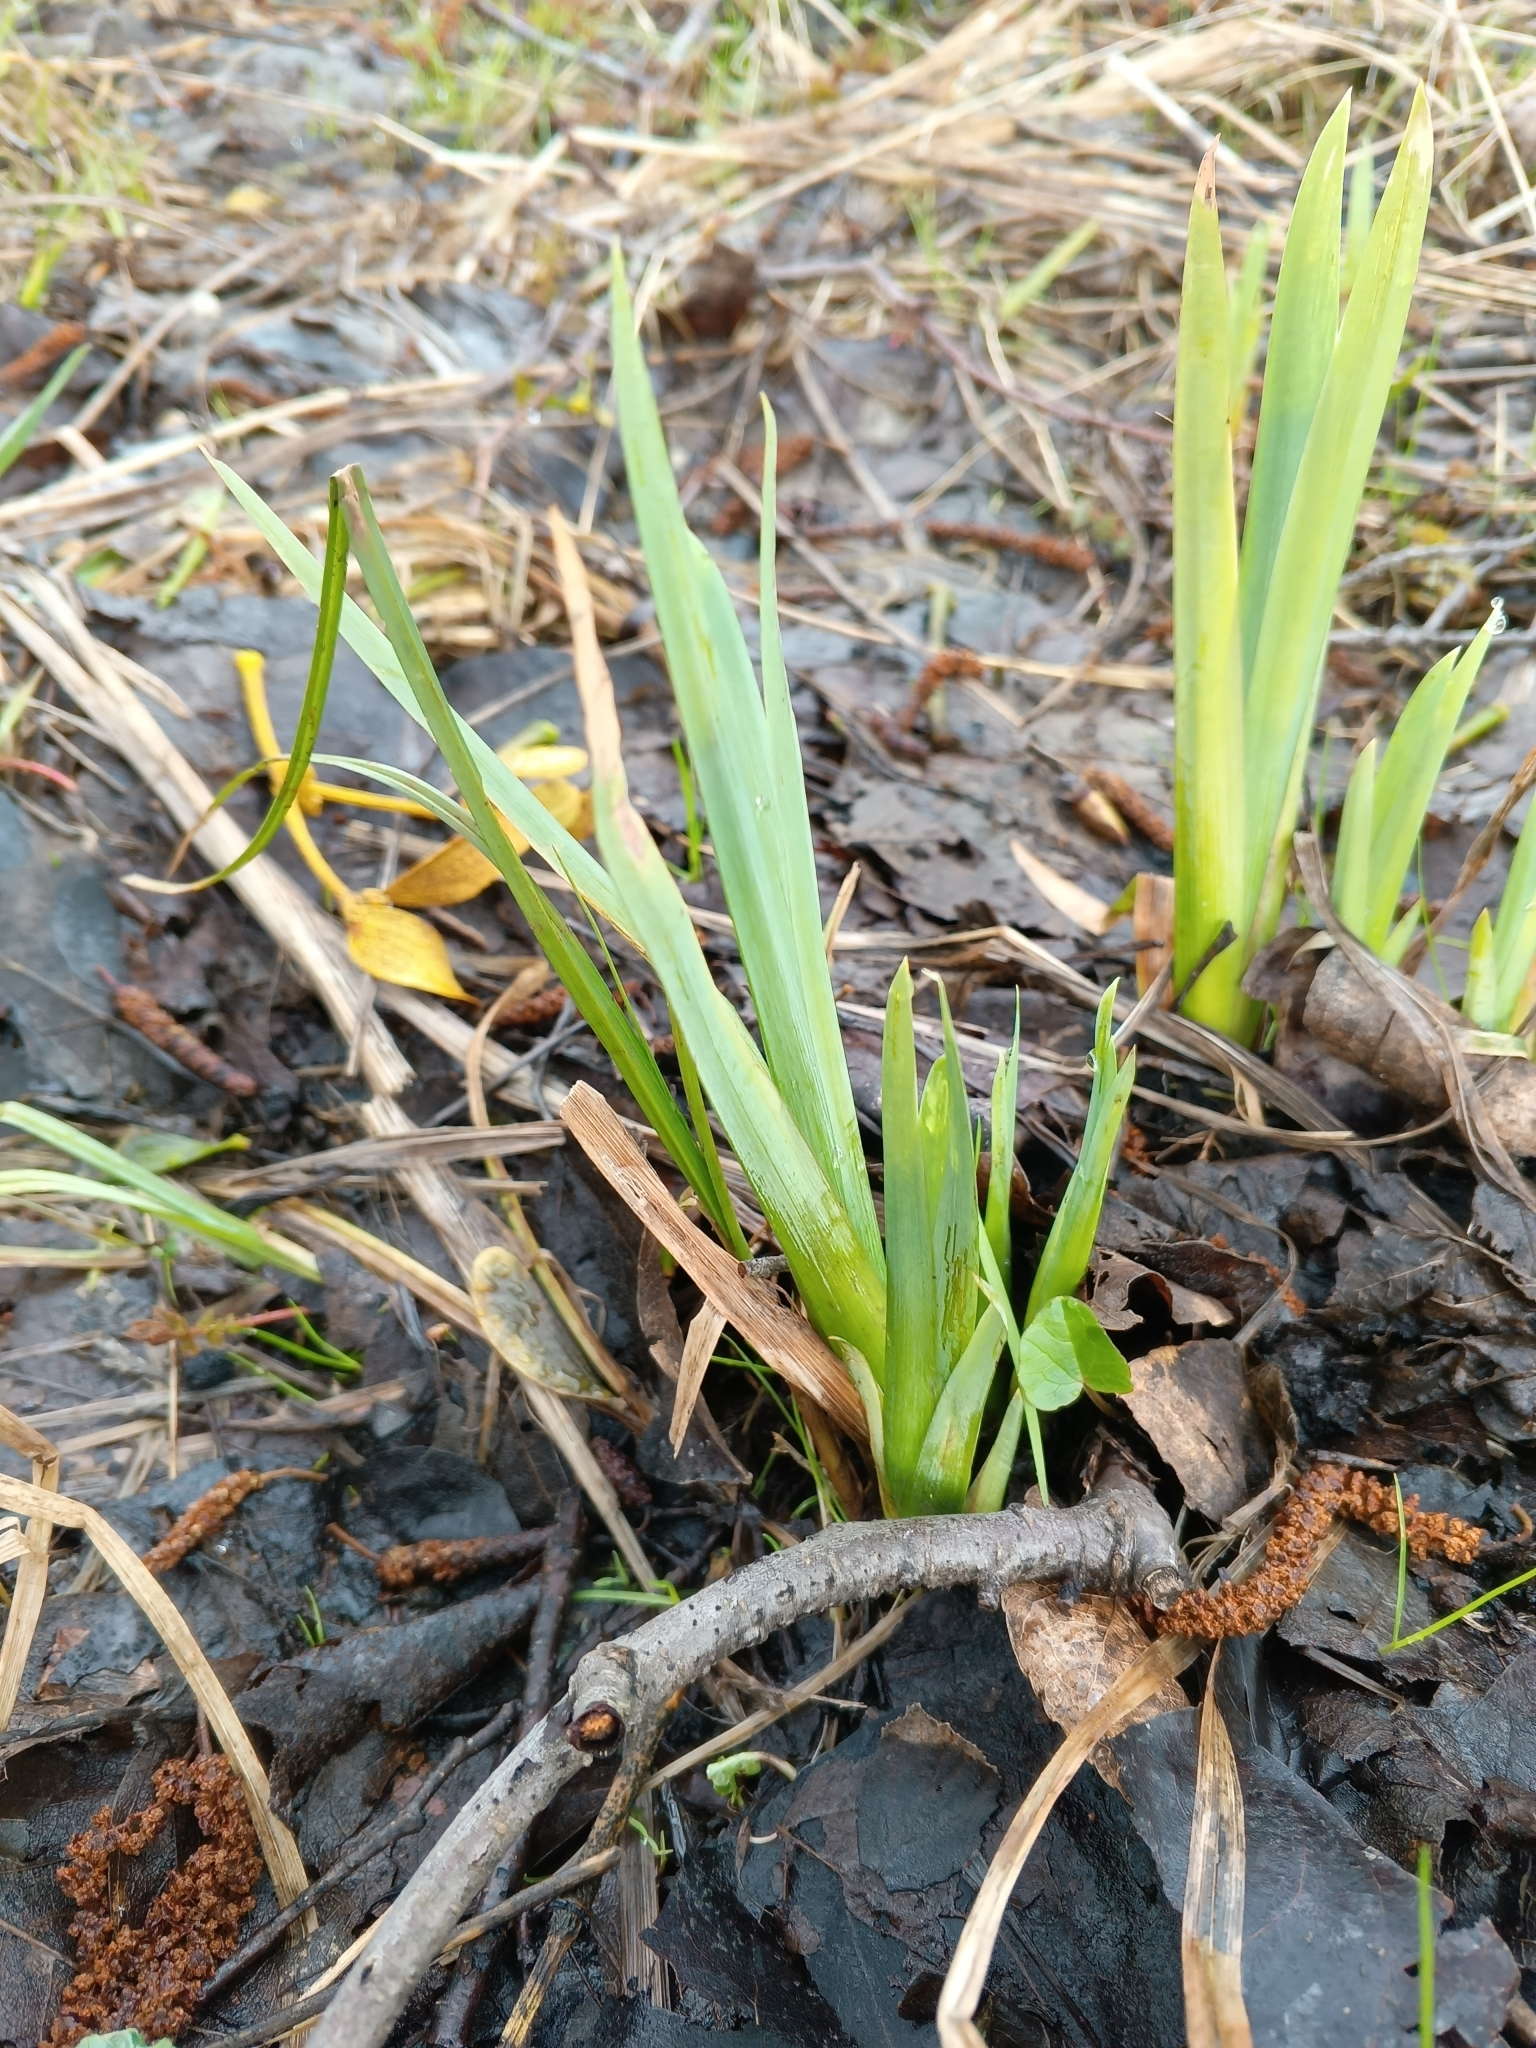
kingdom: Plantae
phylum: Tracheophyta
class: Liliopsida
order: Asparagales
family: Iridaceae
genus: Iris
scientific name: Iris pseudacorus
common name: Yellow flag
